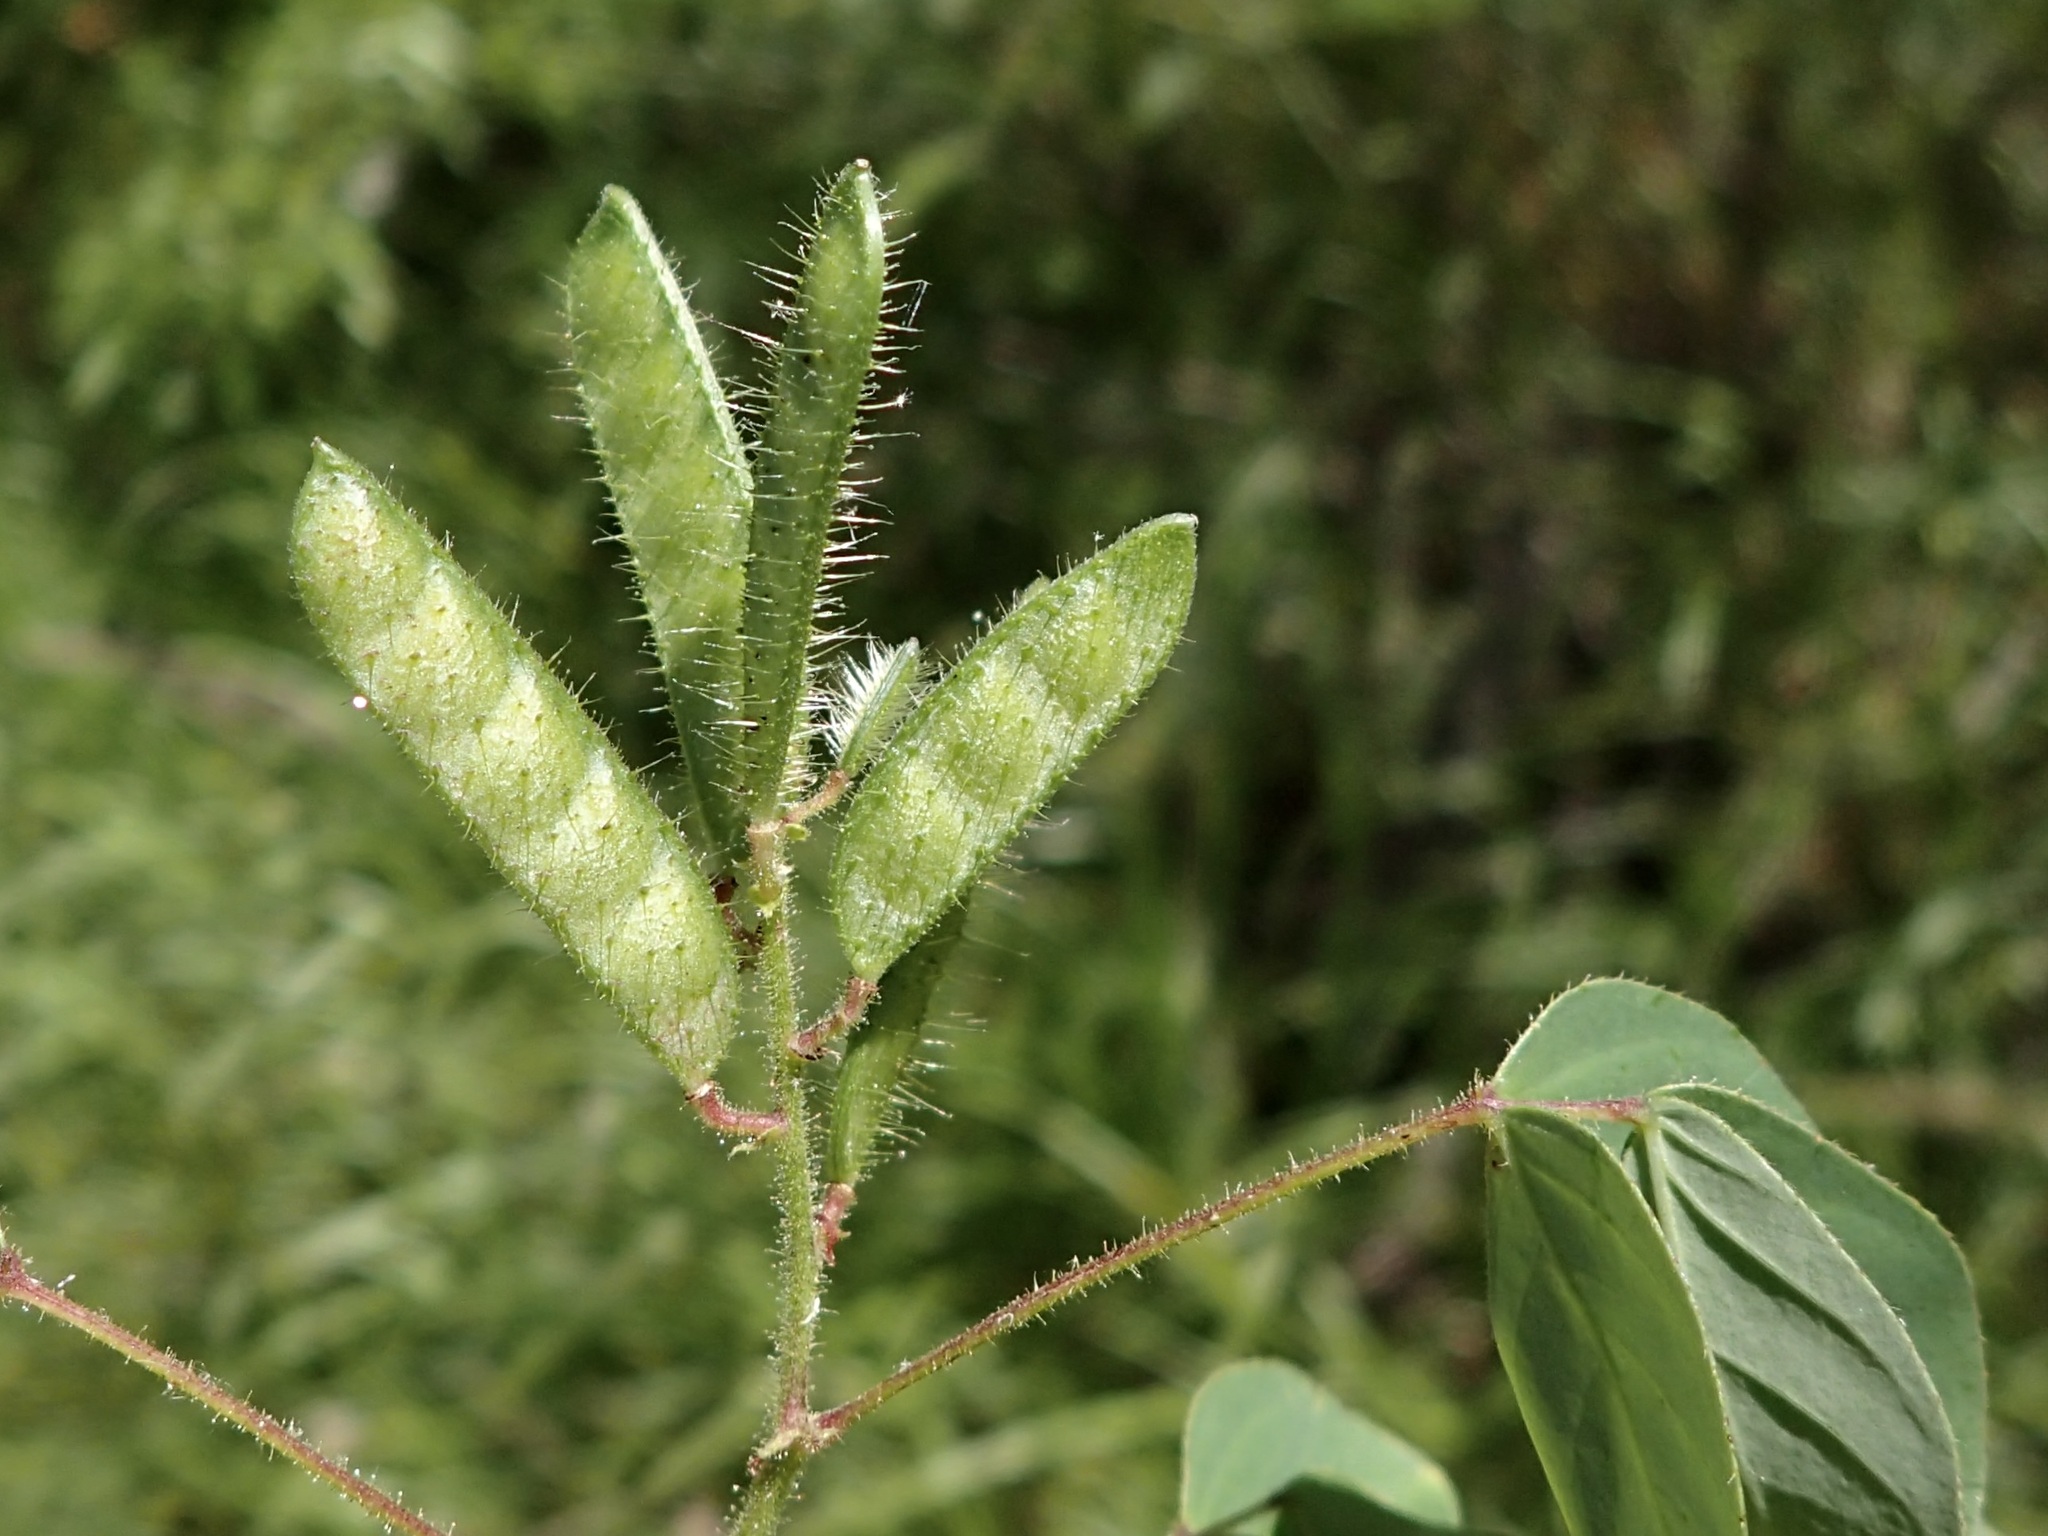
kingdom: Plantae
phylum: Tracheophyta
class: Magnoliopsida
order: Fabales
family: Fabaceae
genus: Chamaecrista
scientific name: Chamaecrista absus
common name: Tropical sensitive pea
